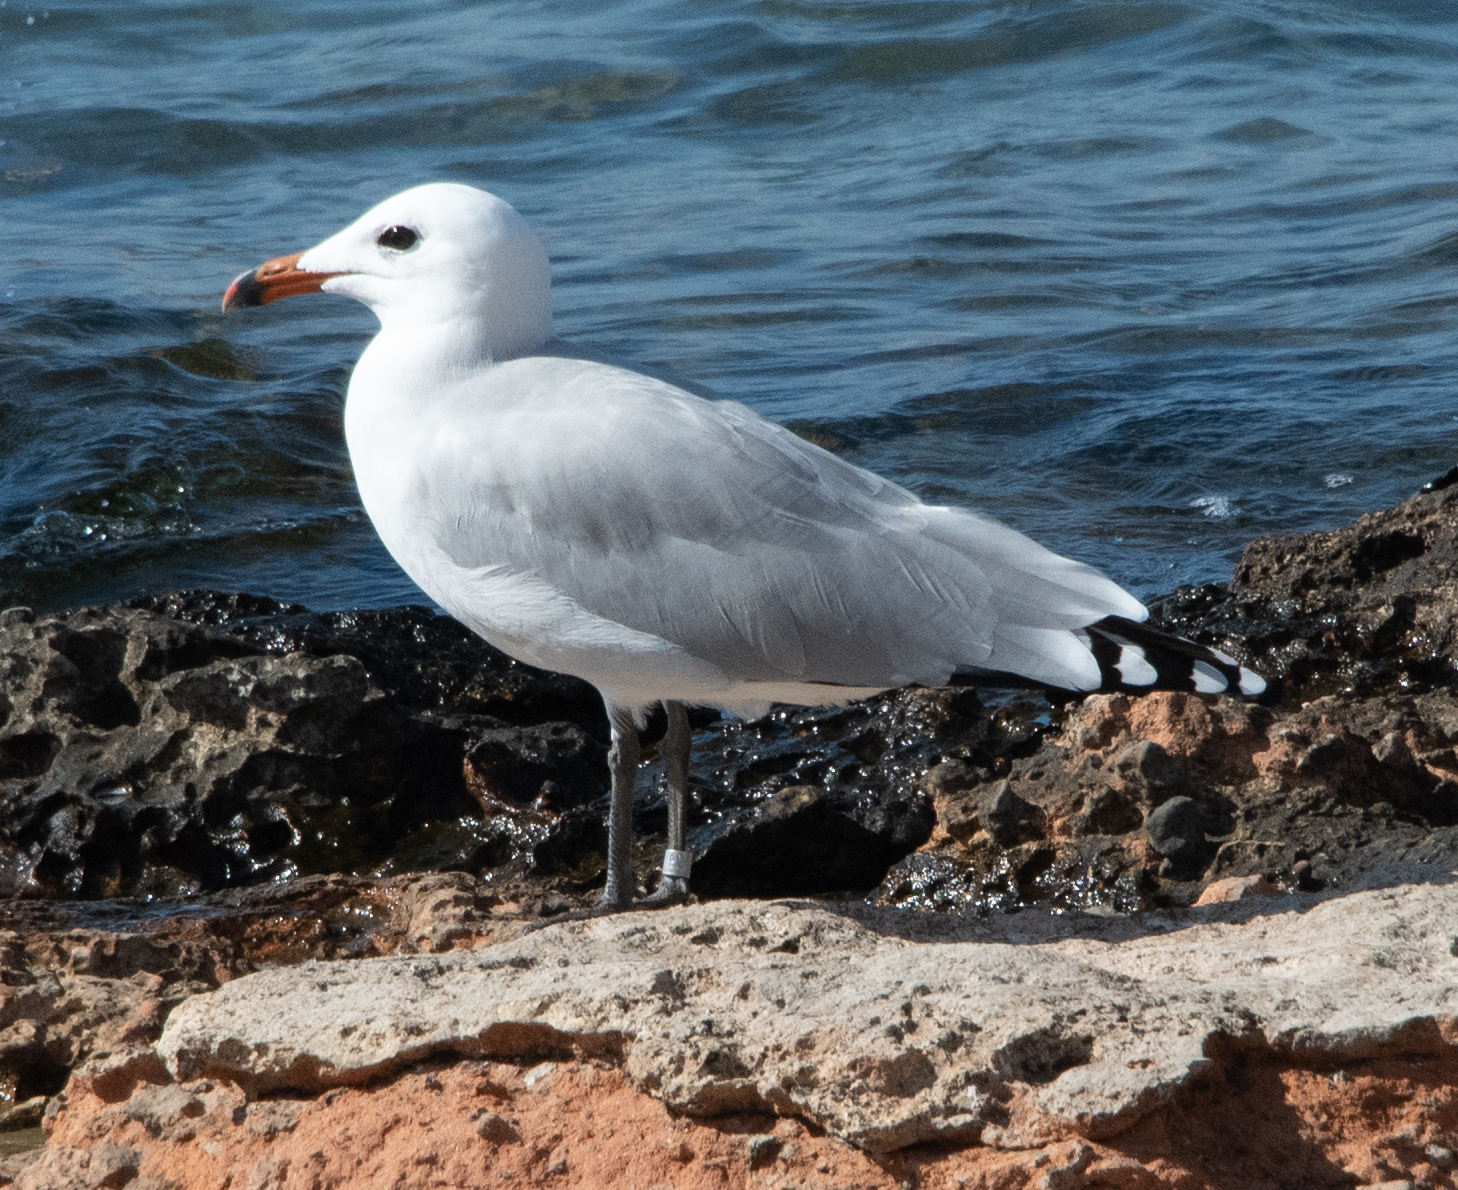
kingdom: Animalia
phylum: Chordata
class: Aves
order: Charadriiformes
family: Laridae
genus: Ichthyaetus
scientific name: Ichthyaetus audouinii
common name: Audouin's gull
